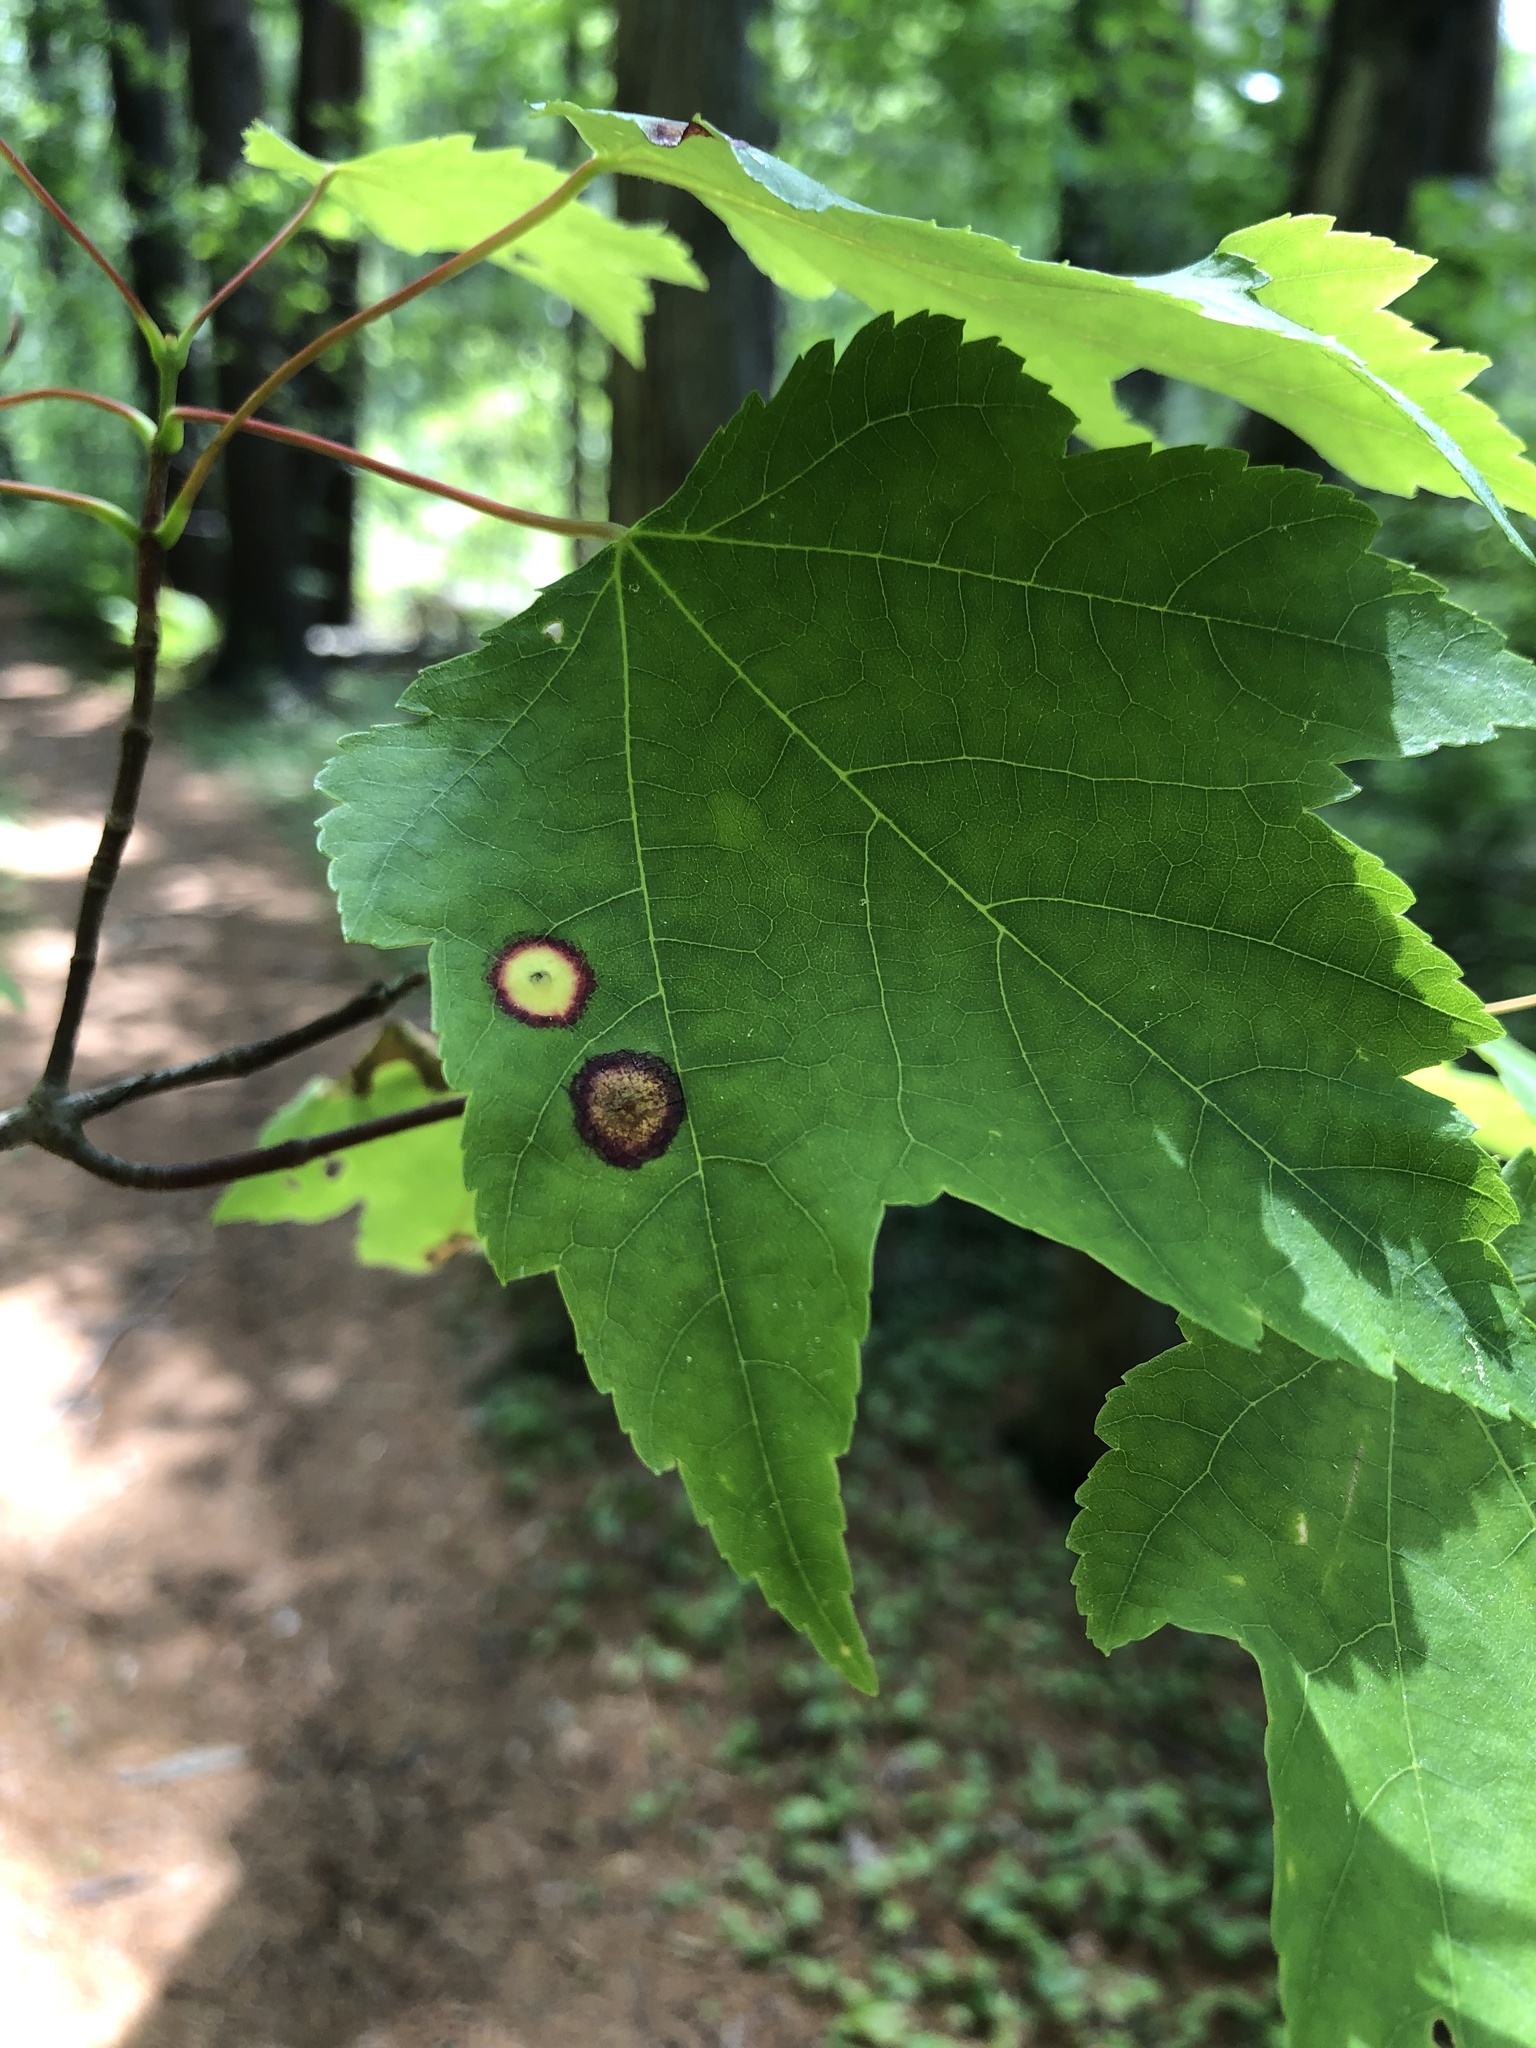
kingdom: Animalia
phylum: Arthropoda
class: Insecta
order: Diptera
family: Cecidomyiidae
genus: Acericecis
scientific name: Acericecis ocellaris
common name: Ocellate gall midge
